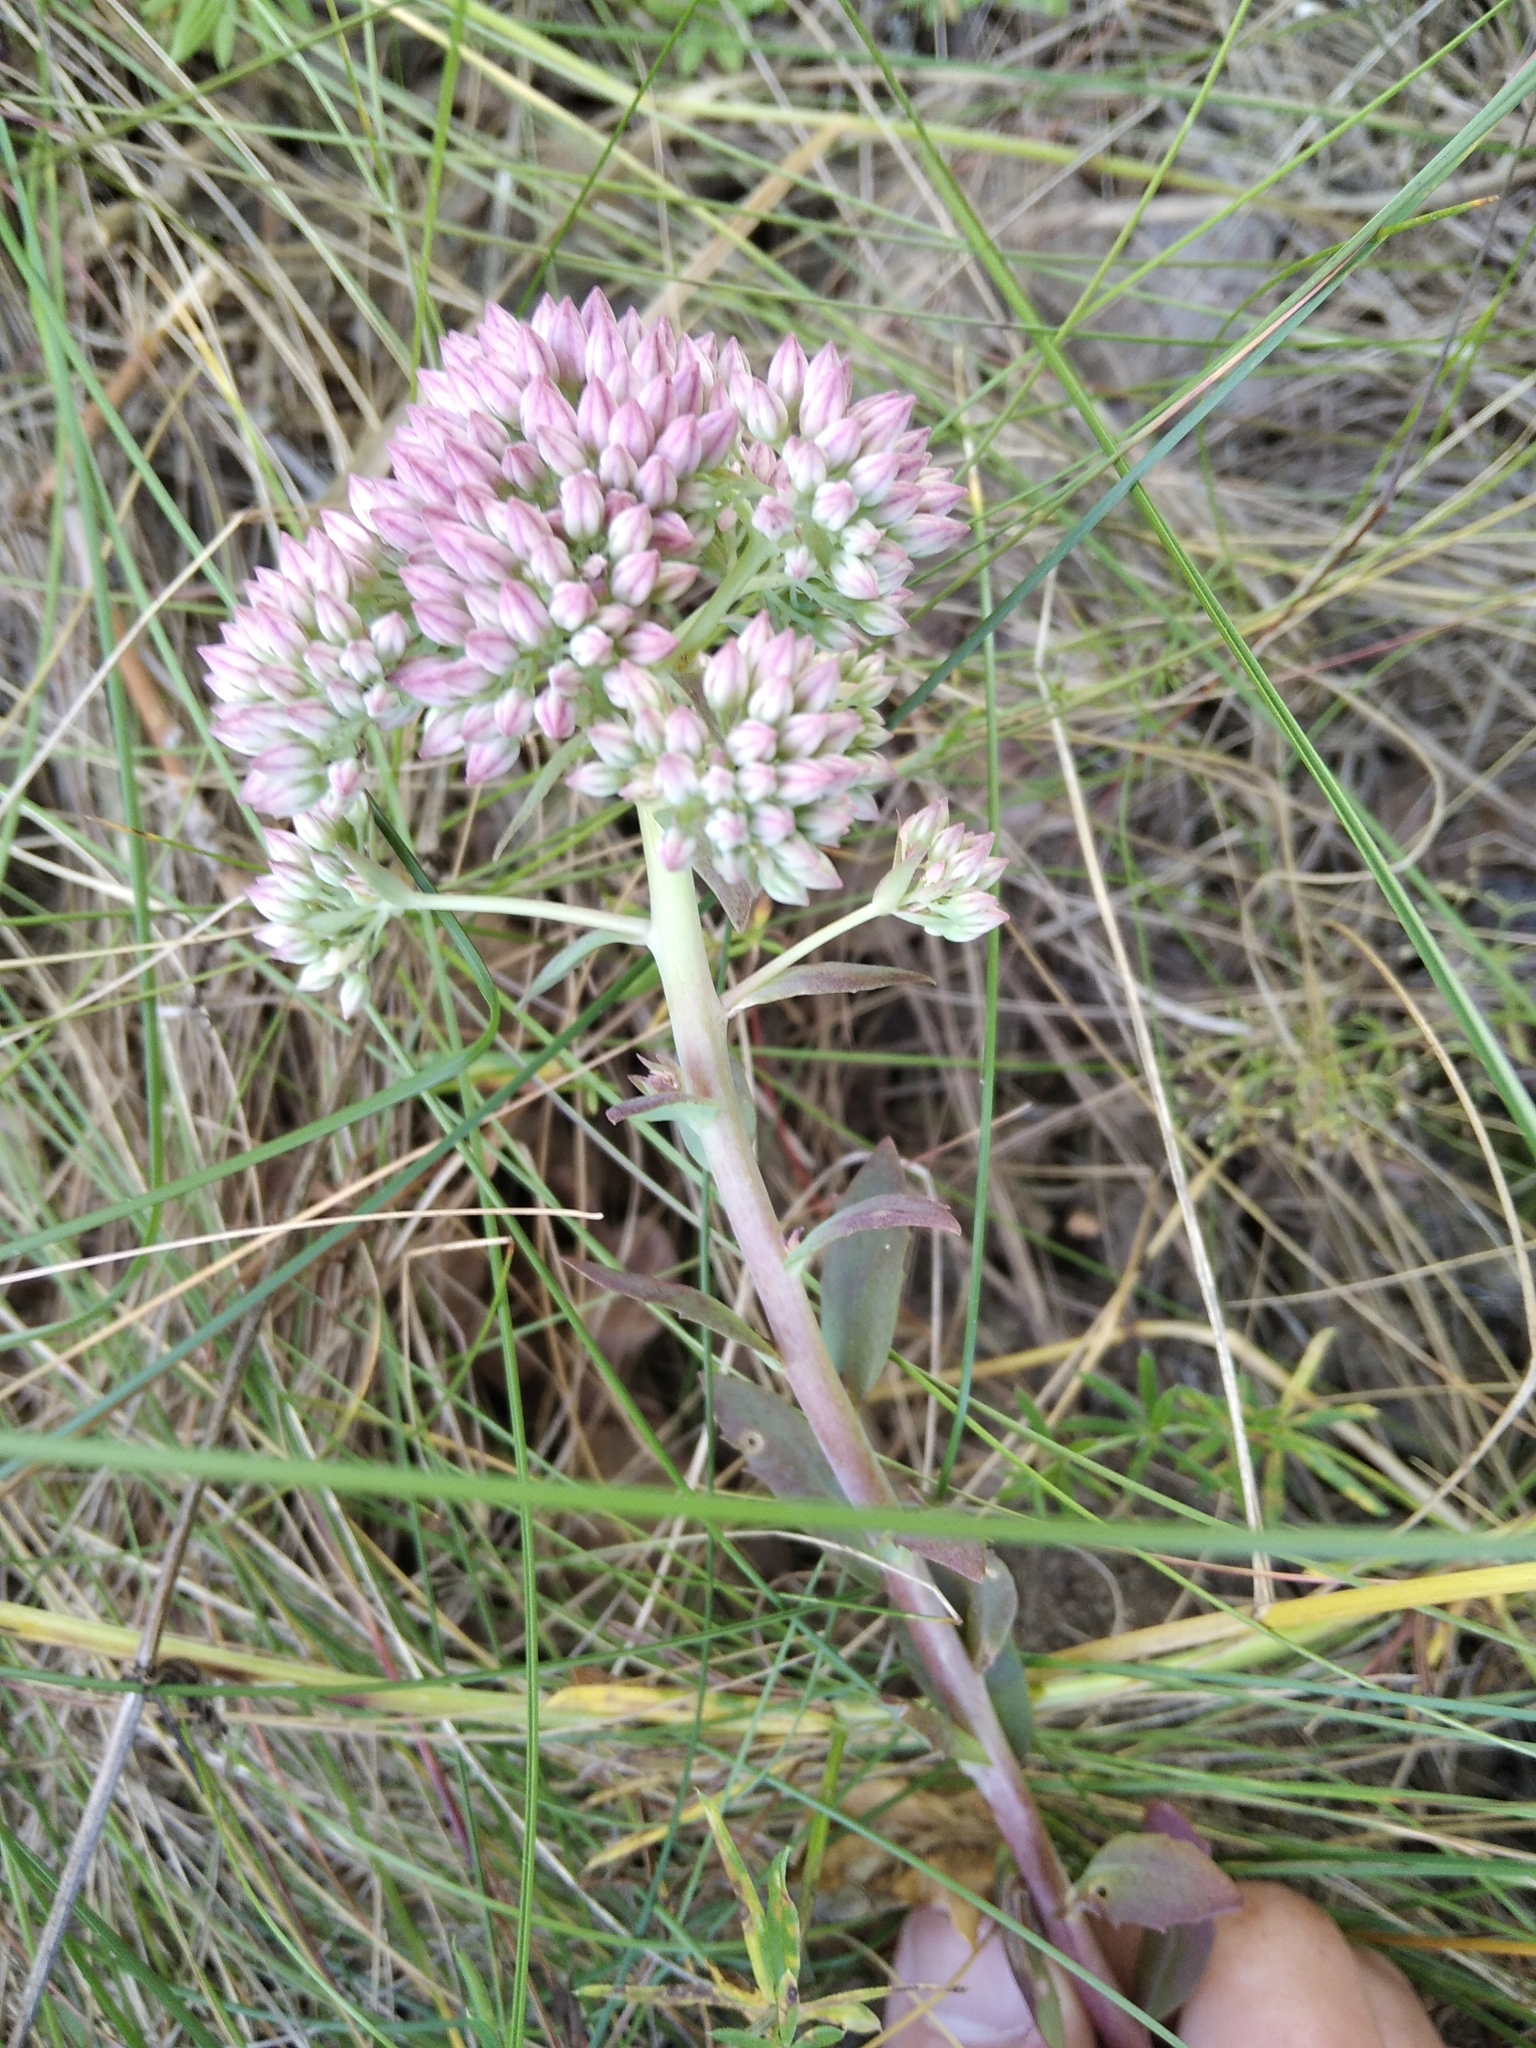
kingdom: Plantae
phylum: Tracheophyta
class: Magnoliopsida
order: Saxifragales
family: Crassulaceae
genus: Hylotelephium
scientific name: Hylotelephium telephium
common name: Live-forever
